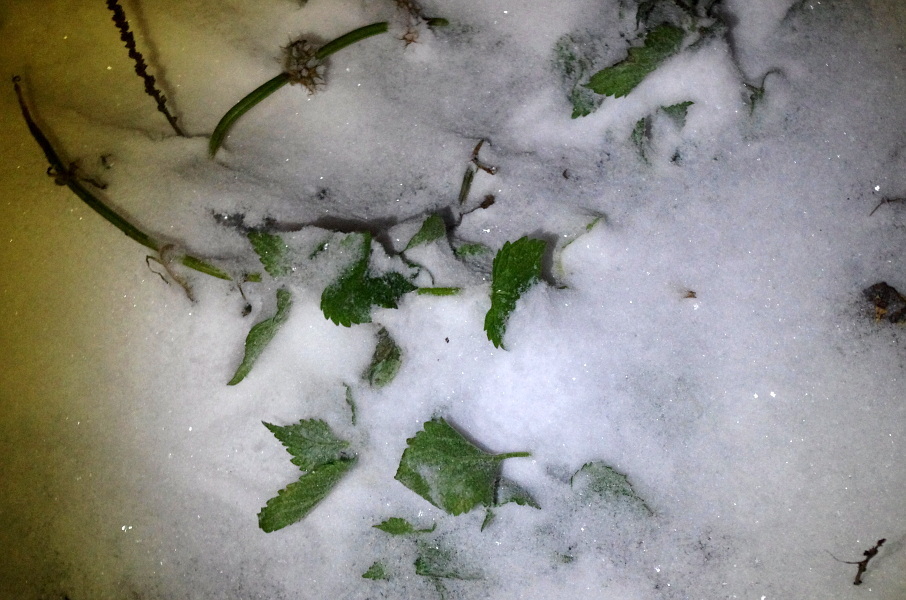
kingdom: Plantae
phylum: Tracheophyta
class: Magnoliopsida
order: Lamiales
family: Lamiaceae
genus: Lamium
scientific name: Lamium album
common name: White dead-nettle
